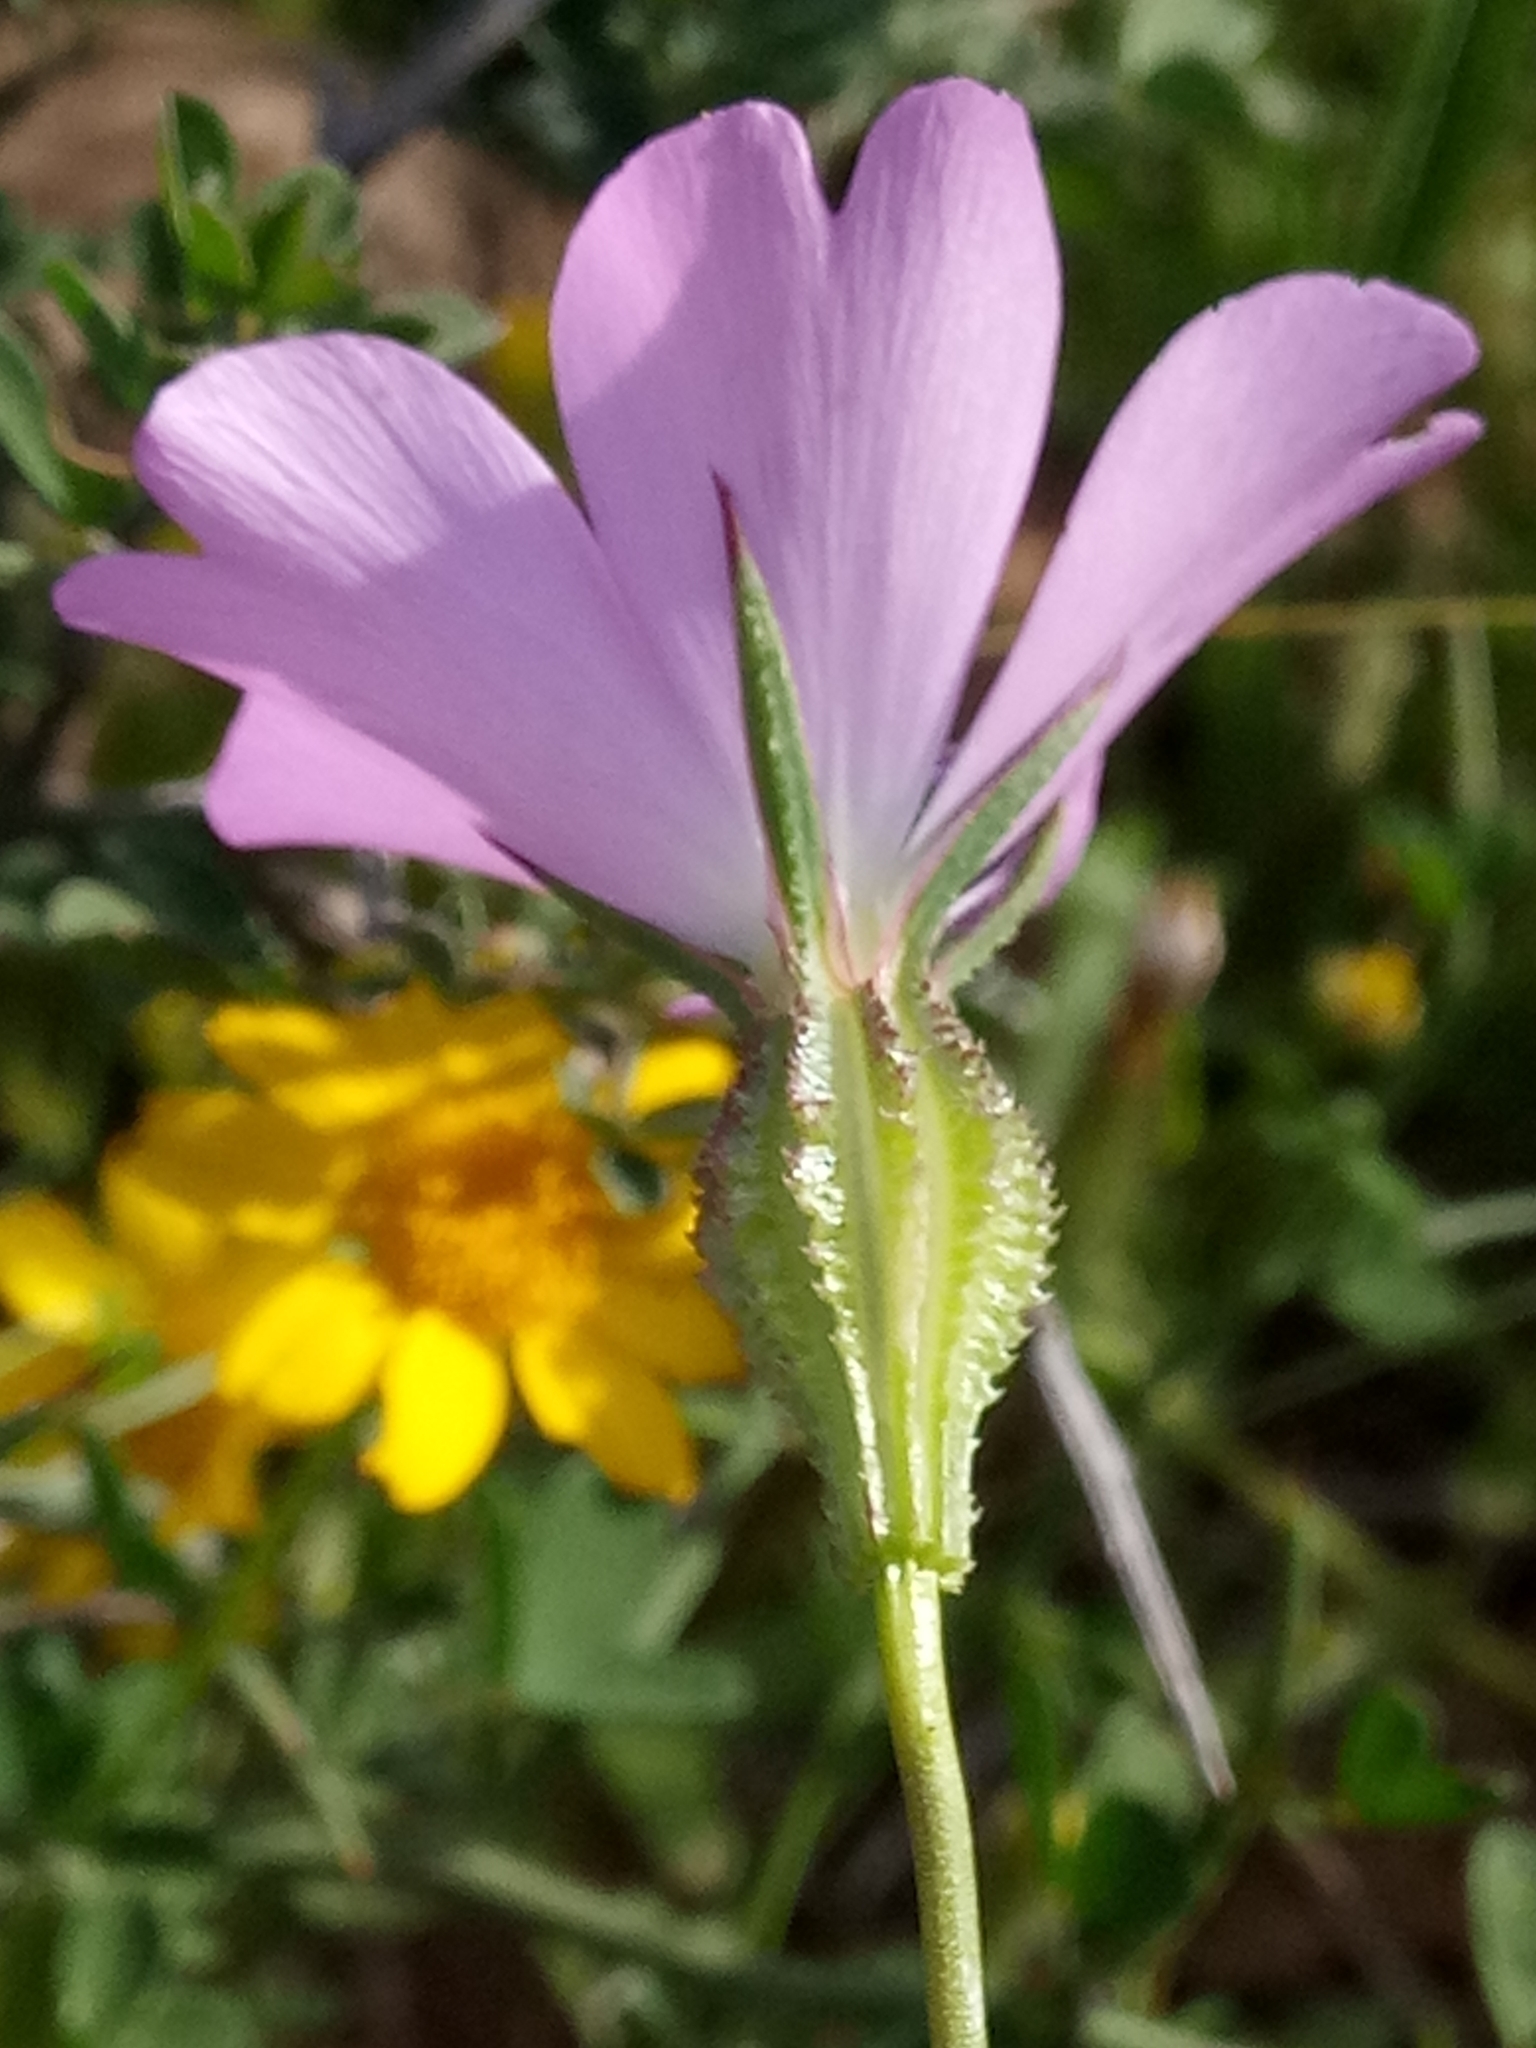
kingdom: Plantae
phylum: Tracheophyta
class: Magnoliopsida
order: Caryophyllales
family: Caryophyllaceae
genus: Eudianthe
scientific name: Eudianthe coeli-rosa
